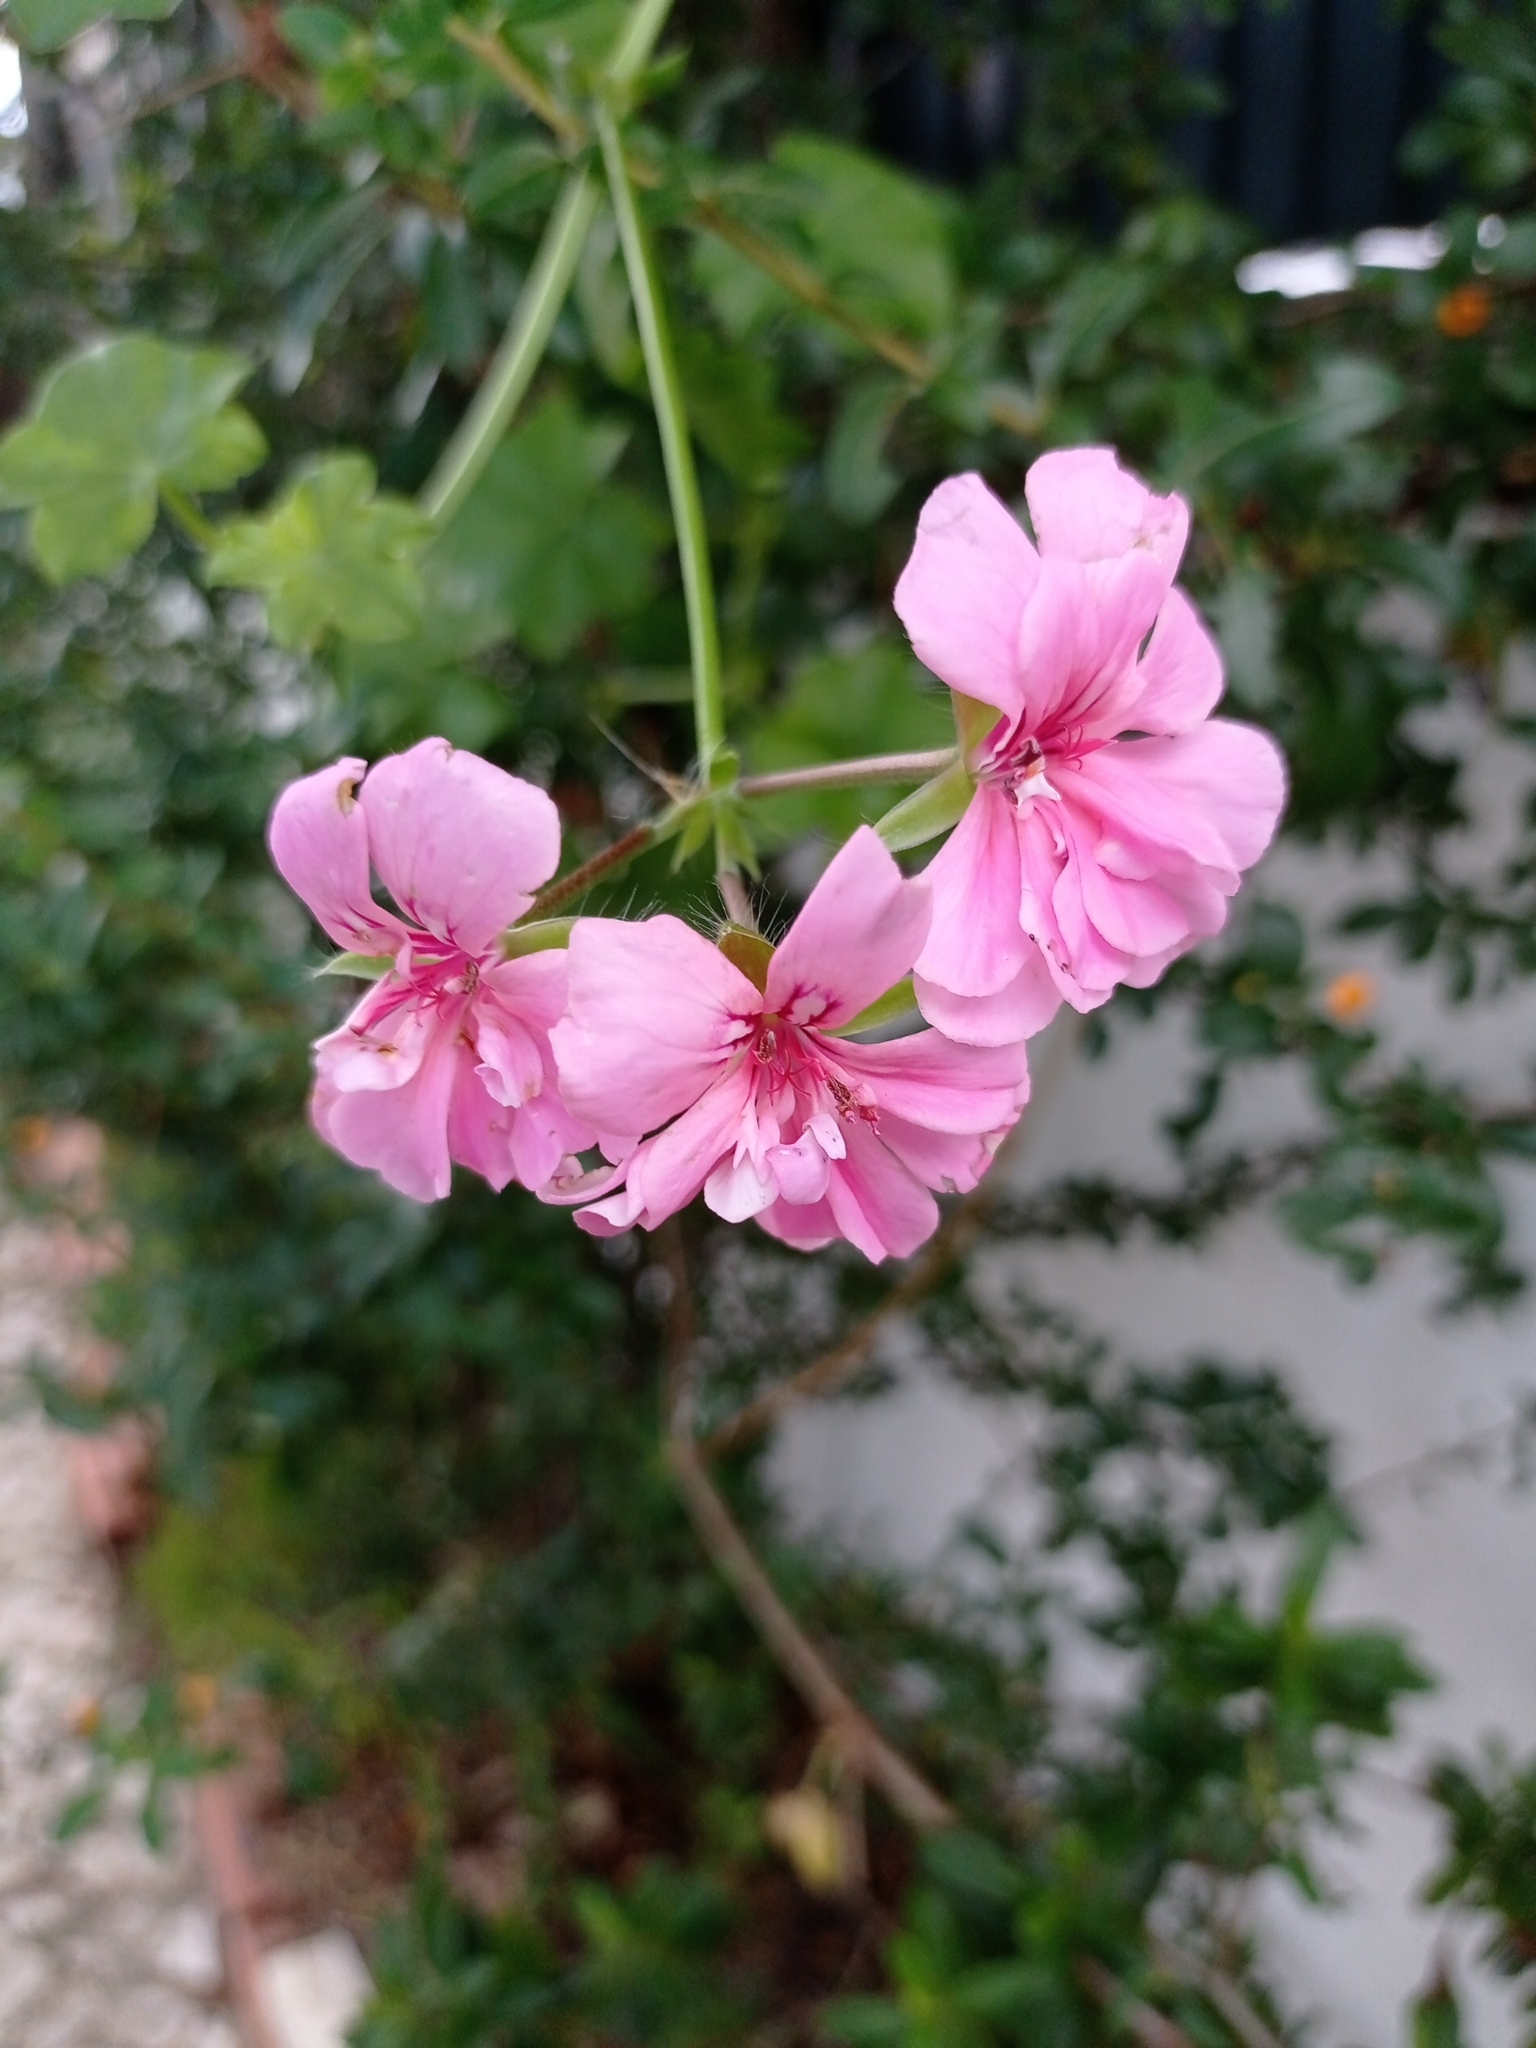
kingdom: Plantae
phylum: Tracheophyta
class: Magnoliopsida
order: Geraniales
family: Geraniaceae
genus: Pelargonium
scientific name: Pelargonium hybridum
